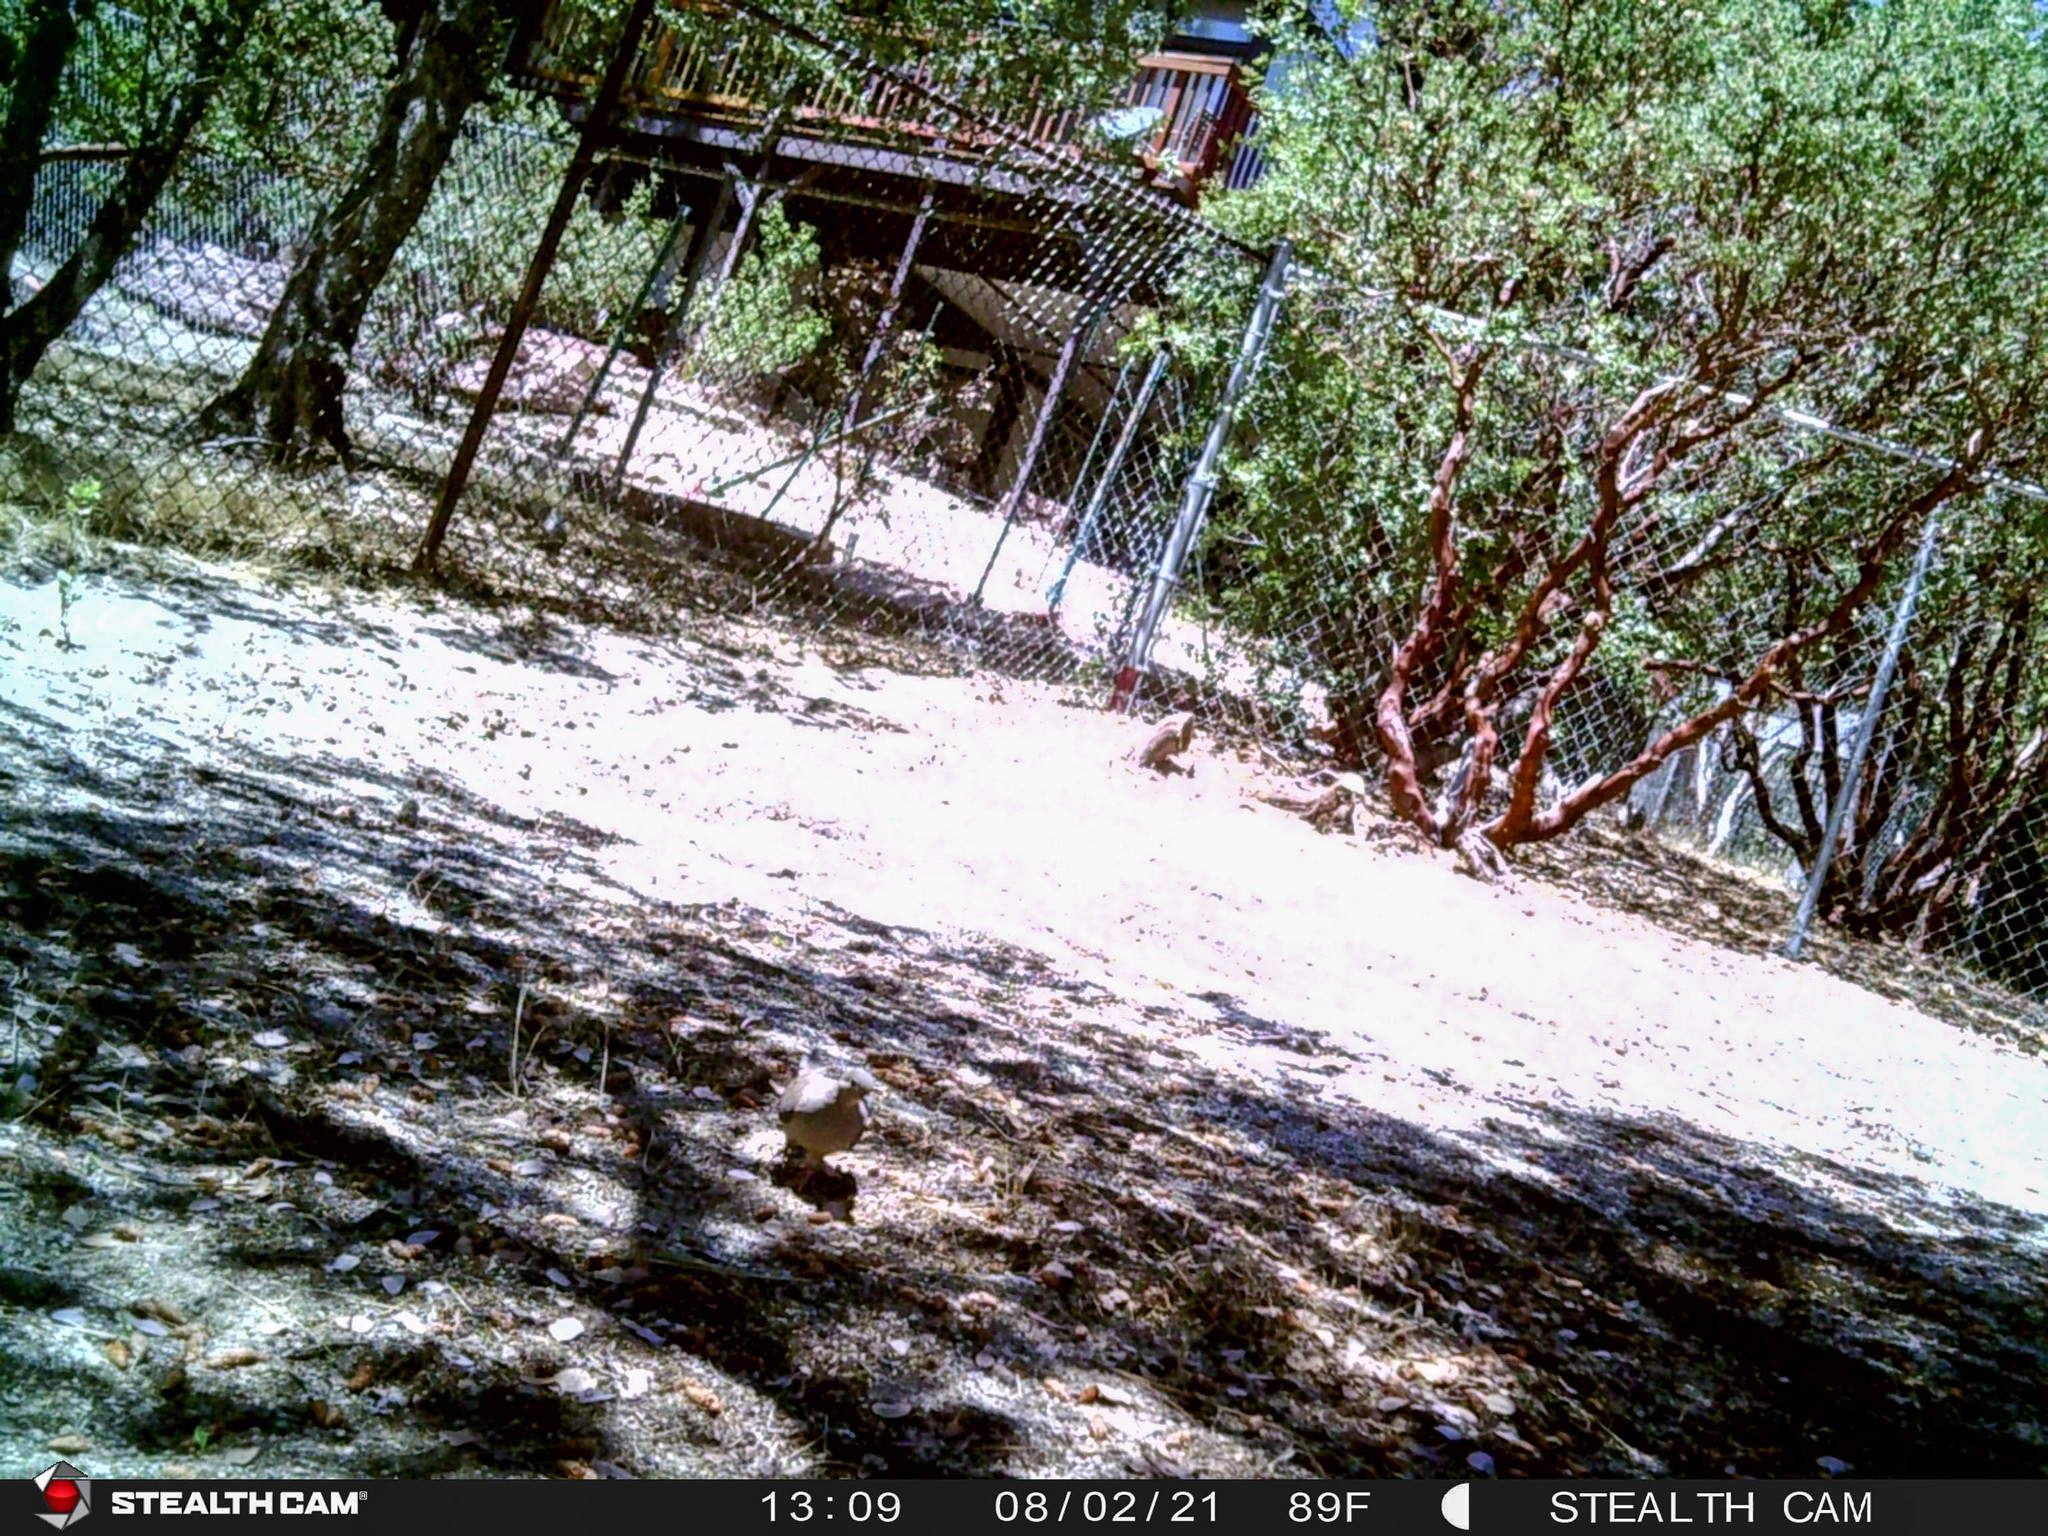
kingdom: Animalia
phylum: Chordata
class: Aves
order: Columbiformes
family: Columbidae
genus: Zenaida
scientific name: Zenaida macroura
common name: Mourning dove
